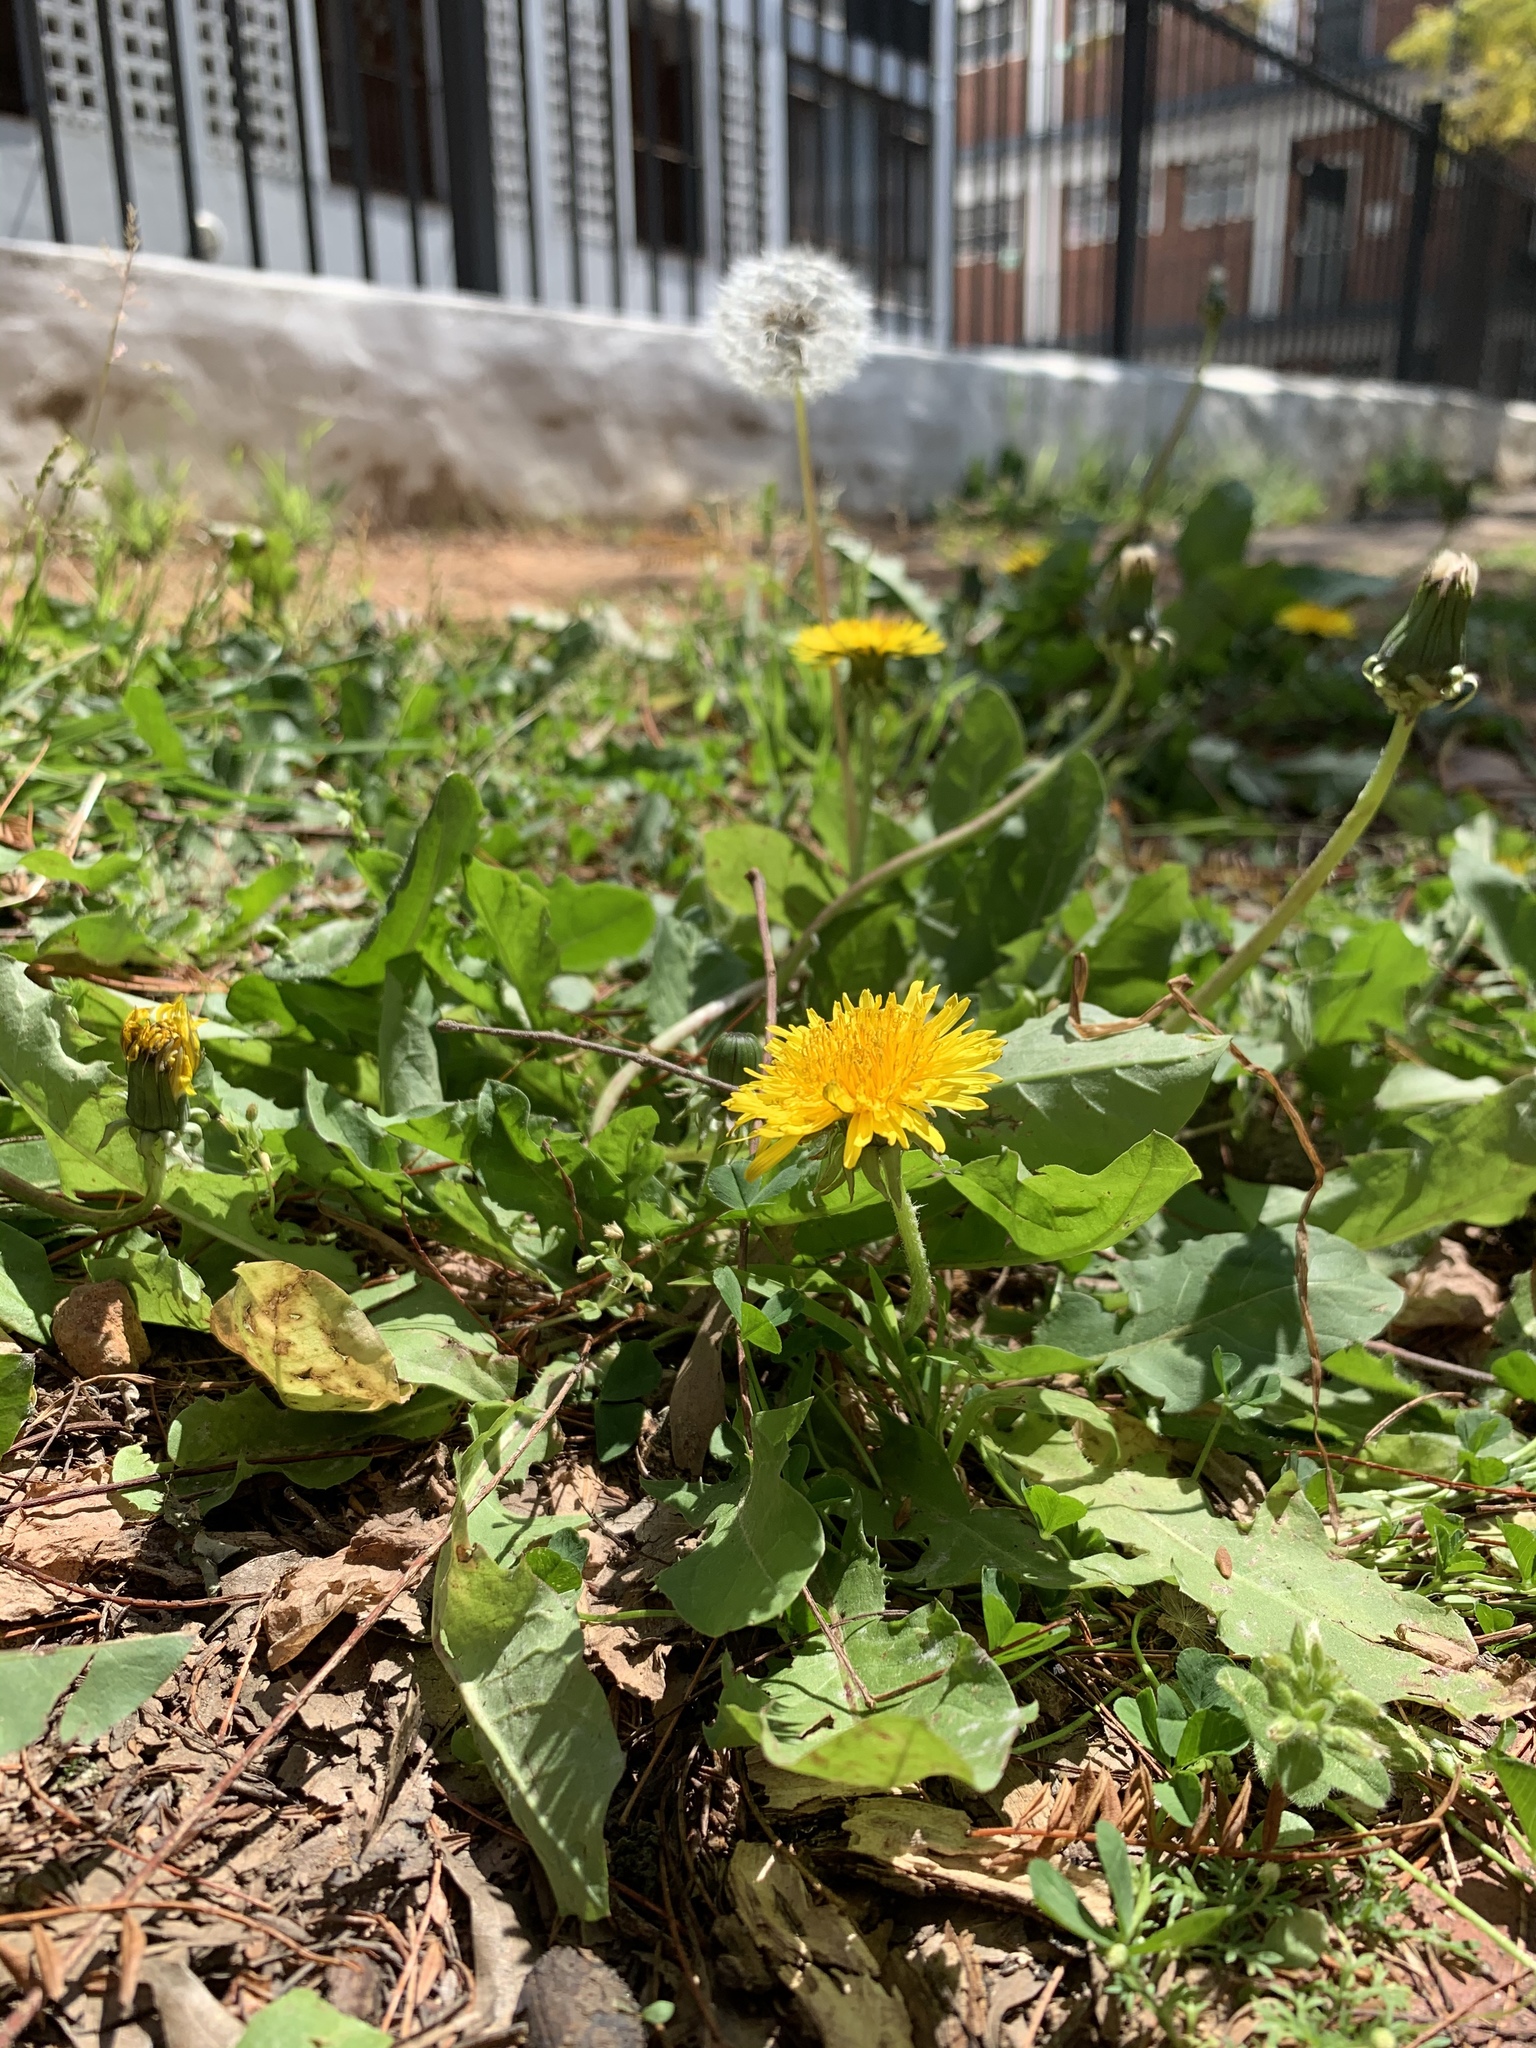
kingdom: Plantae
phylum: Tracheophyta
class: Magnoliopsida
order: Asterales
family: Asteraceae
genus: Taraxacum
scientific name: Taraxacum officinale
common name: Common dandelion
